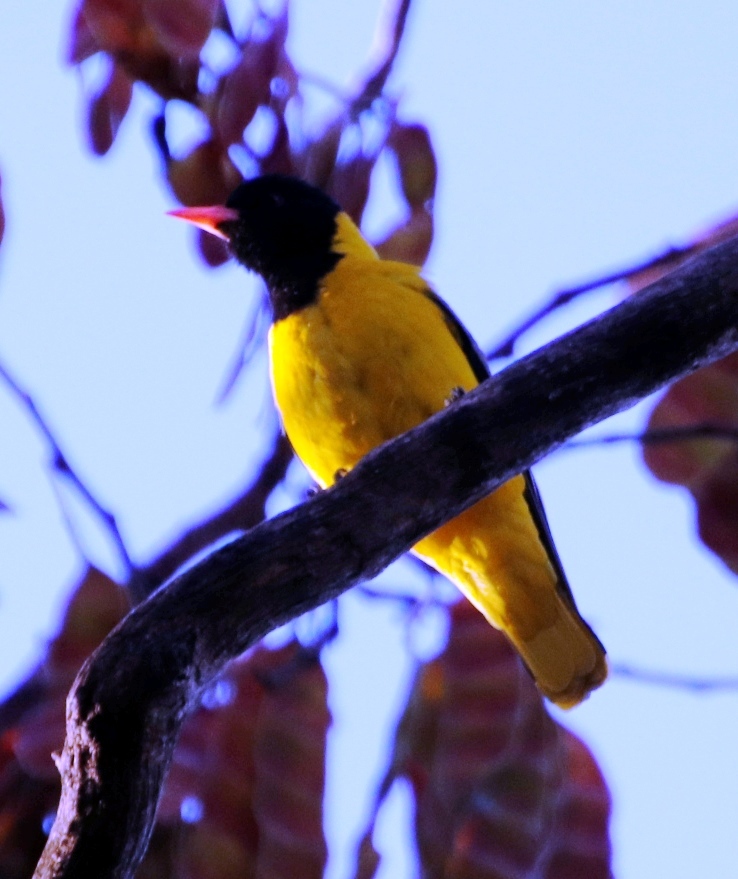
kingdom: Animalia
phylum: Chordata
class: Aves
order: Passeriformes
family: Oriolidae
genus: Oriolus
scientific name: Oriolus larvatus
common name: Black-headed oriole
